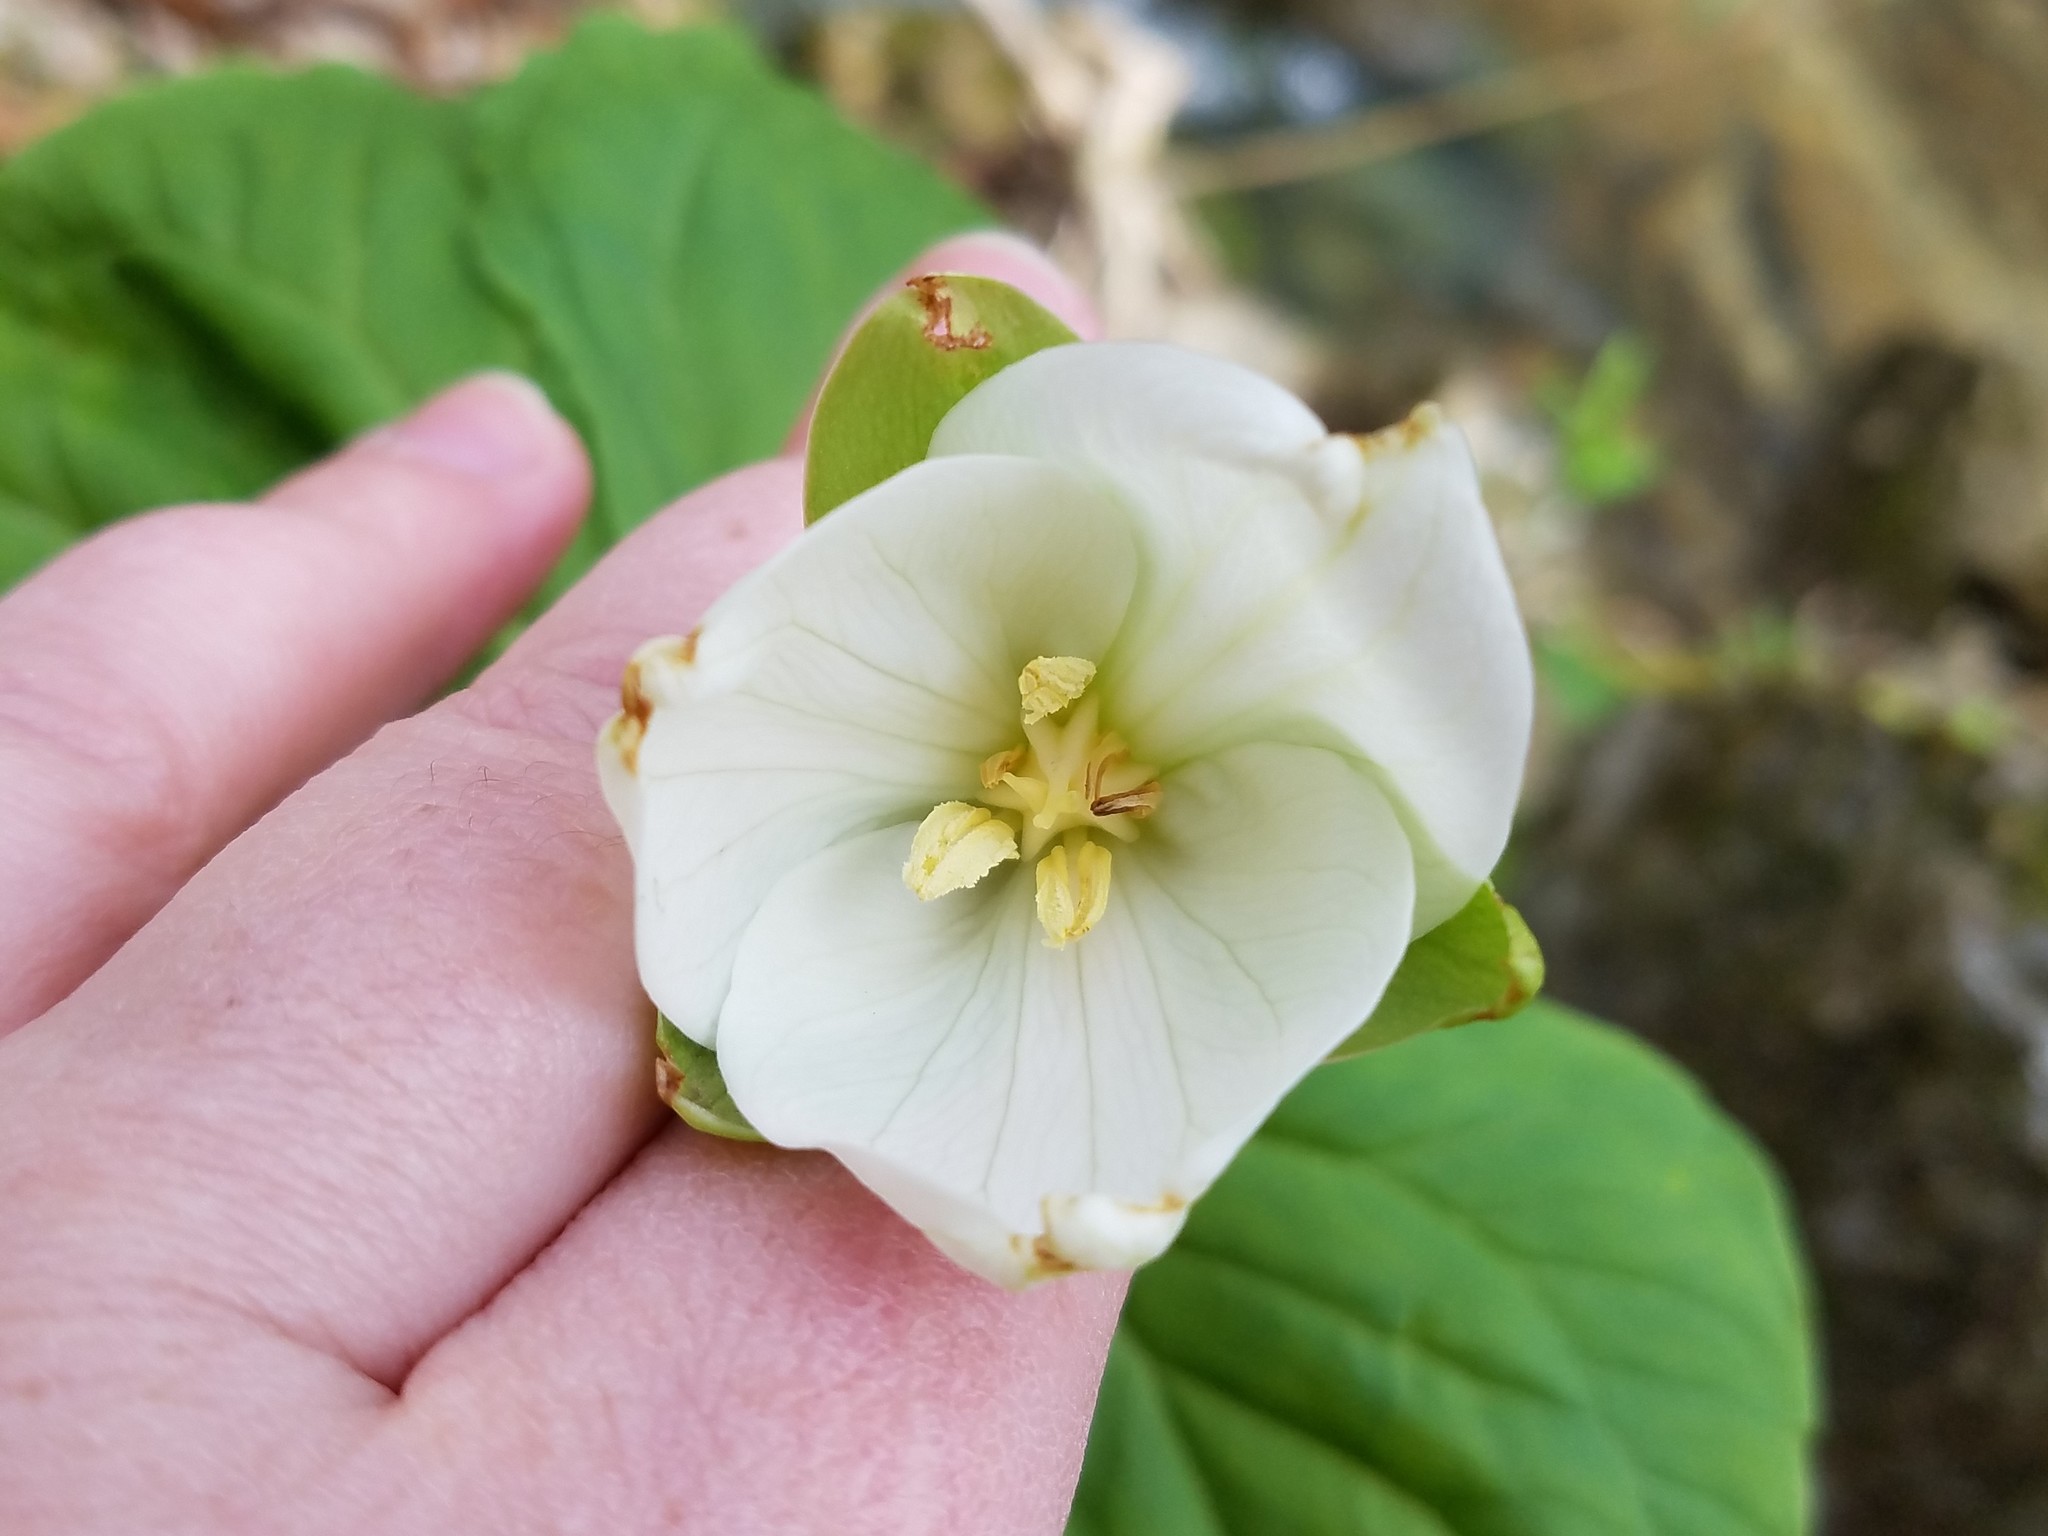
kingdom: Plantae
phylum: Tracheophyta
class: Liliopsida
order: Liliales
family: Melanthiaceae
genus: Trillium
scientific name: Trillium flexipes
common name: Drooping trillium
